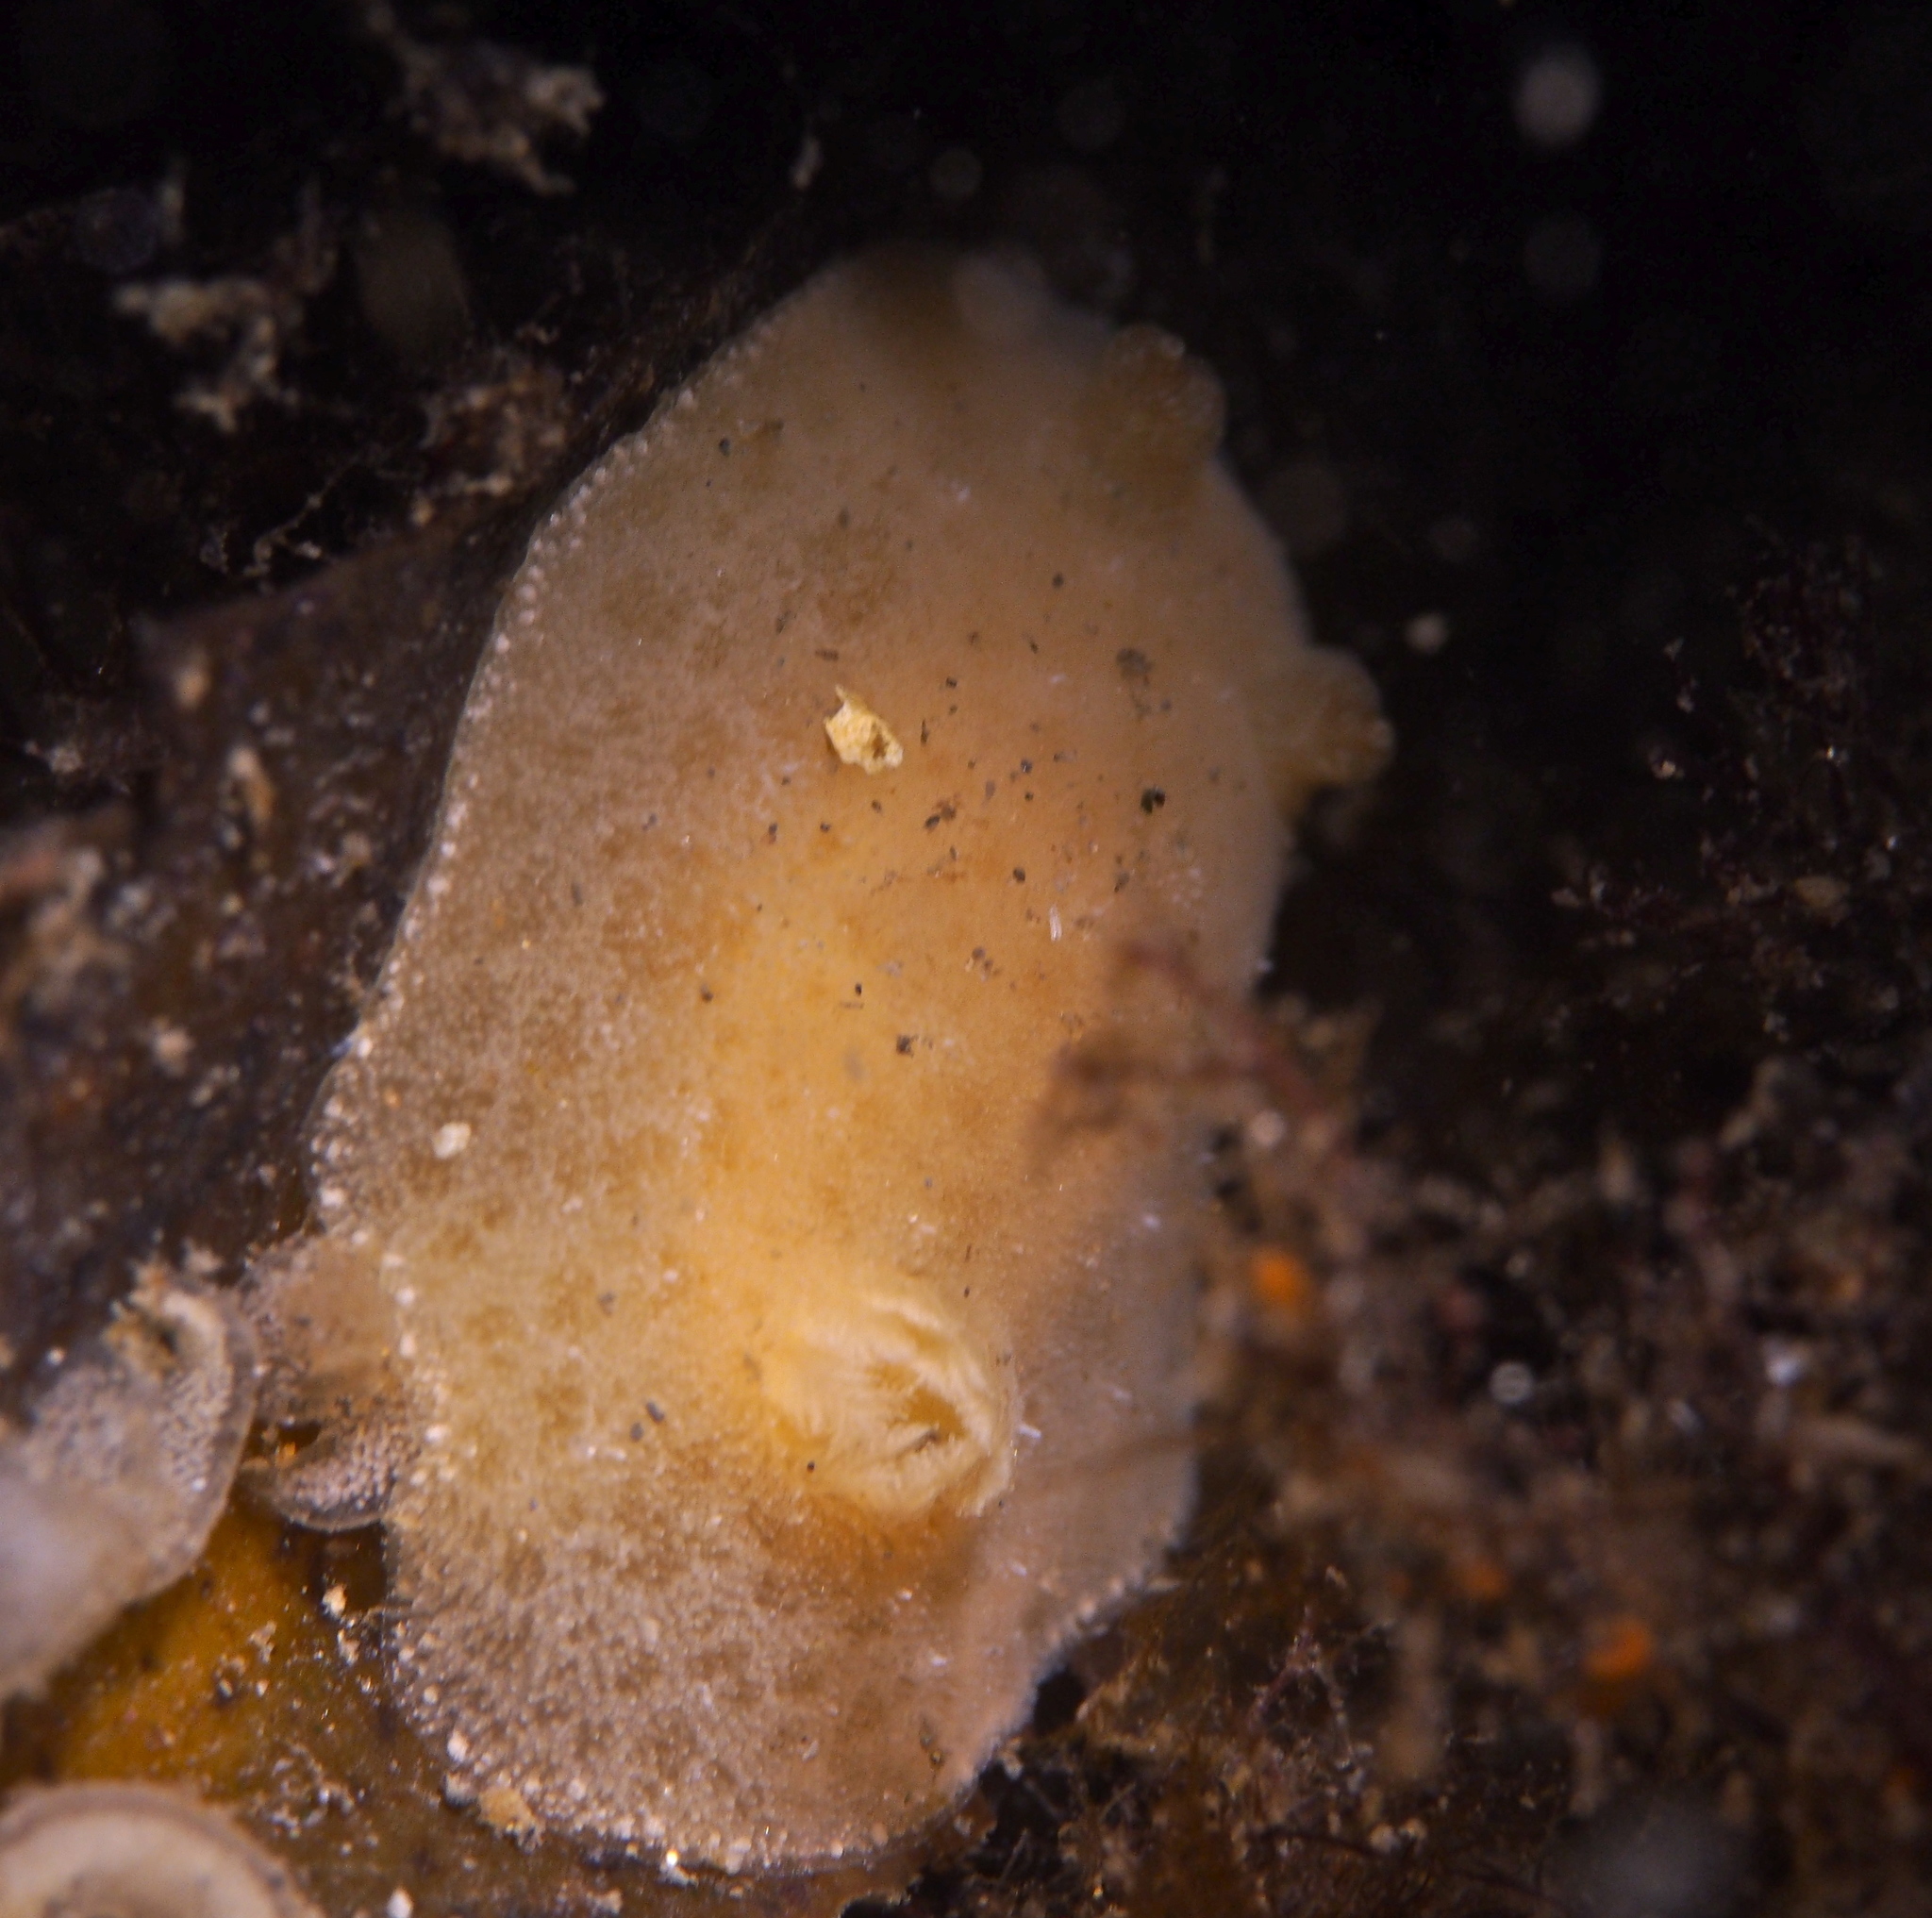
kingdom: Animalia
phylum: Mollusca
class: Gastropoda
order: Nudibranchia
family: Discodorididae
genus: Jorunna
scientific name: Jorunna tomentosa
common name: Grey sea slug
